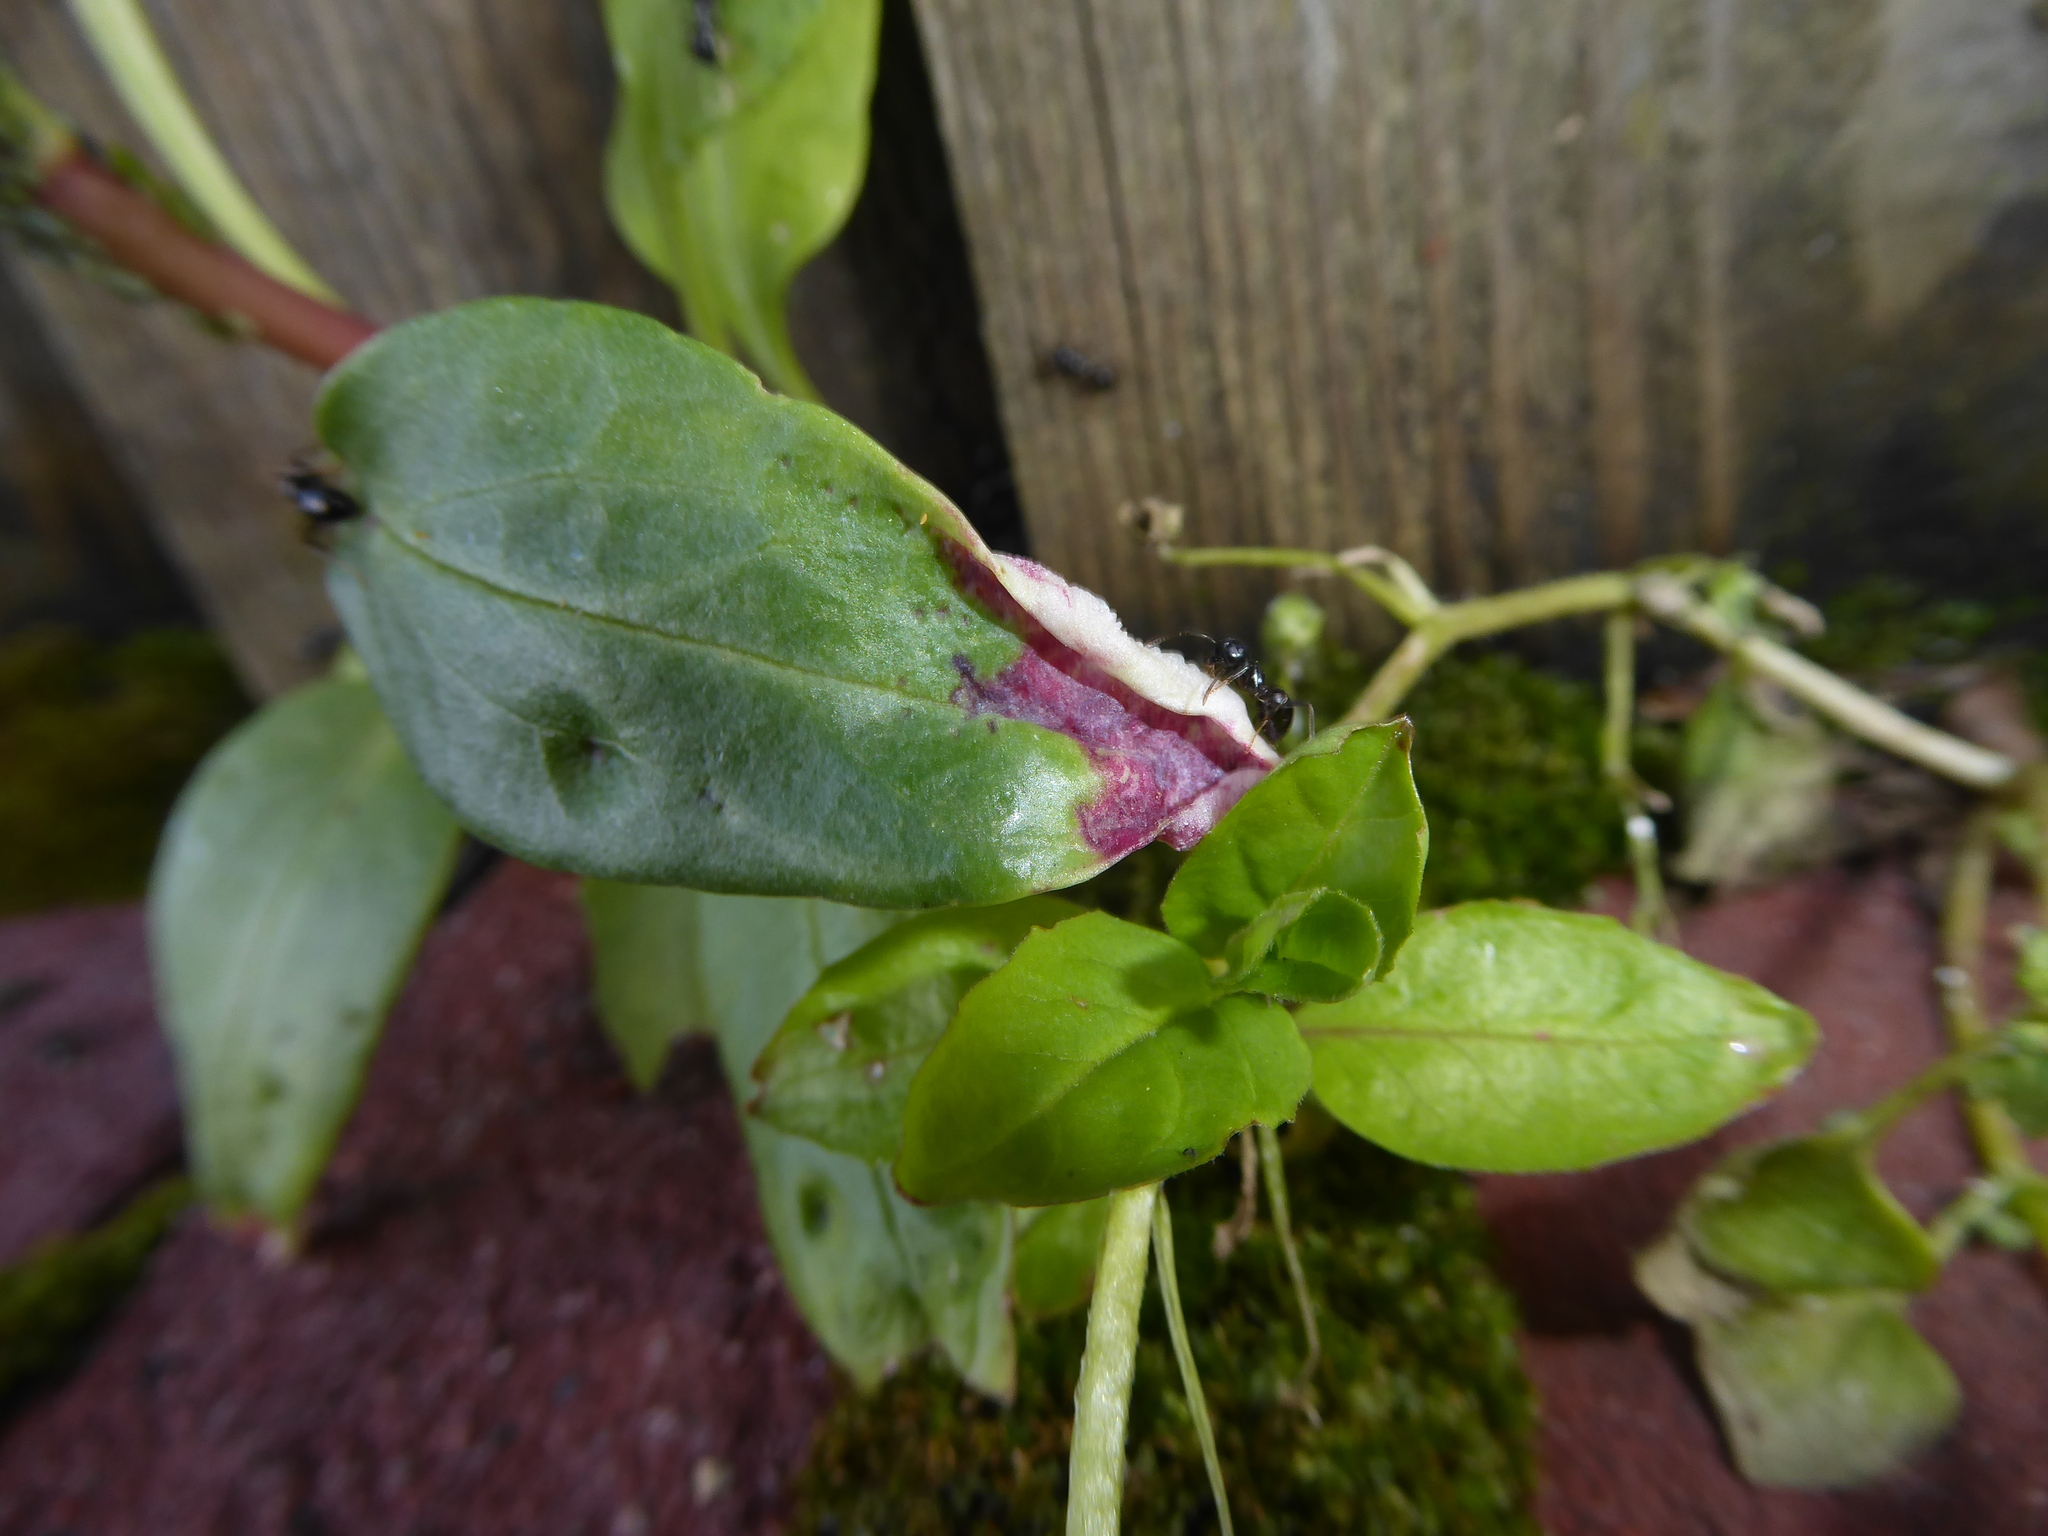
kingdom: Animalia
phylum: Arthropoda
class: Insecta
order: Hemiptera
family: Triozidae
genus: Trioza
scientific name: Trioza centranthi
